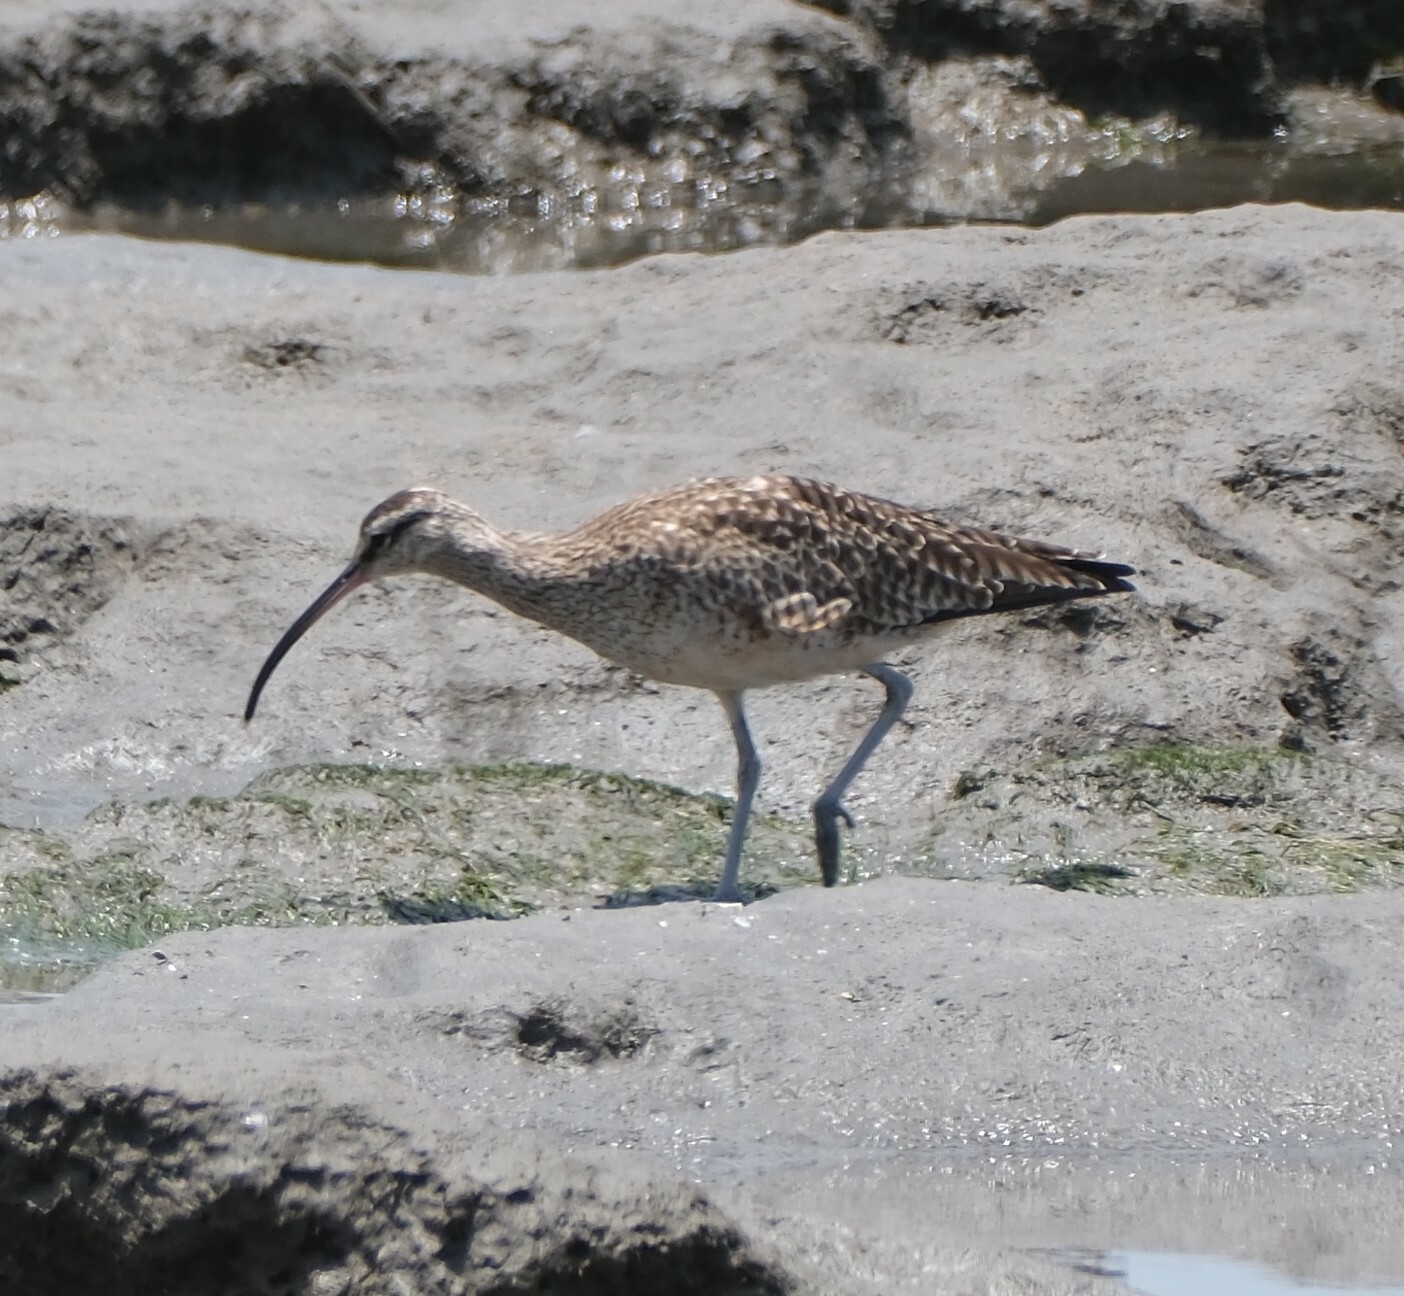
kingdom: Animalia
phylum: Chordata
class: Aves
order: Charadriiformes
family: Scolopacidae
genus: Numenius
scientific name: Numenius phaeopus
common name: Whimbrel
